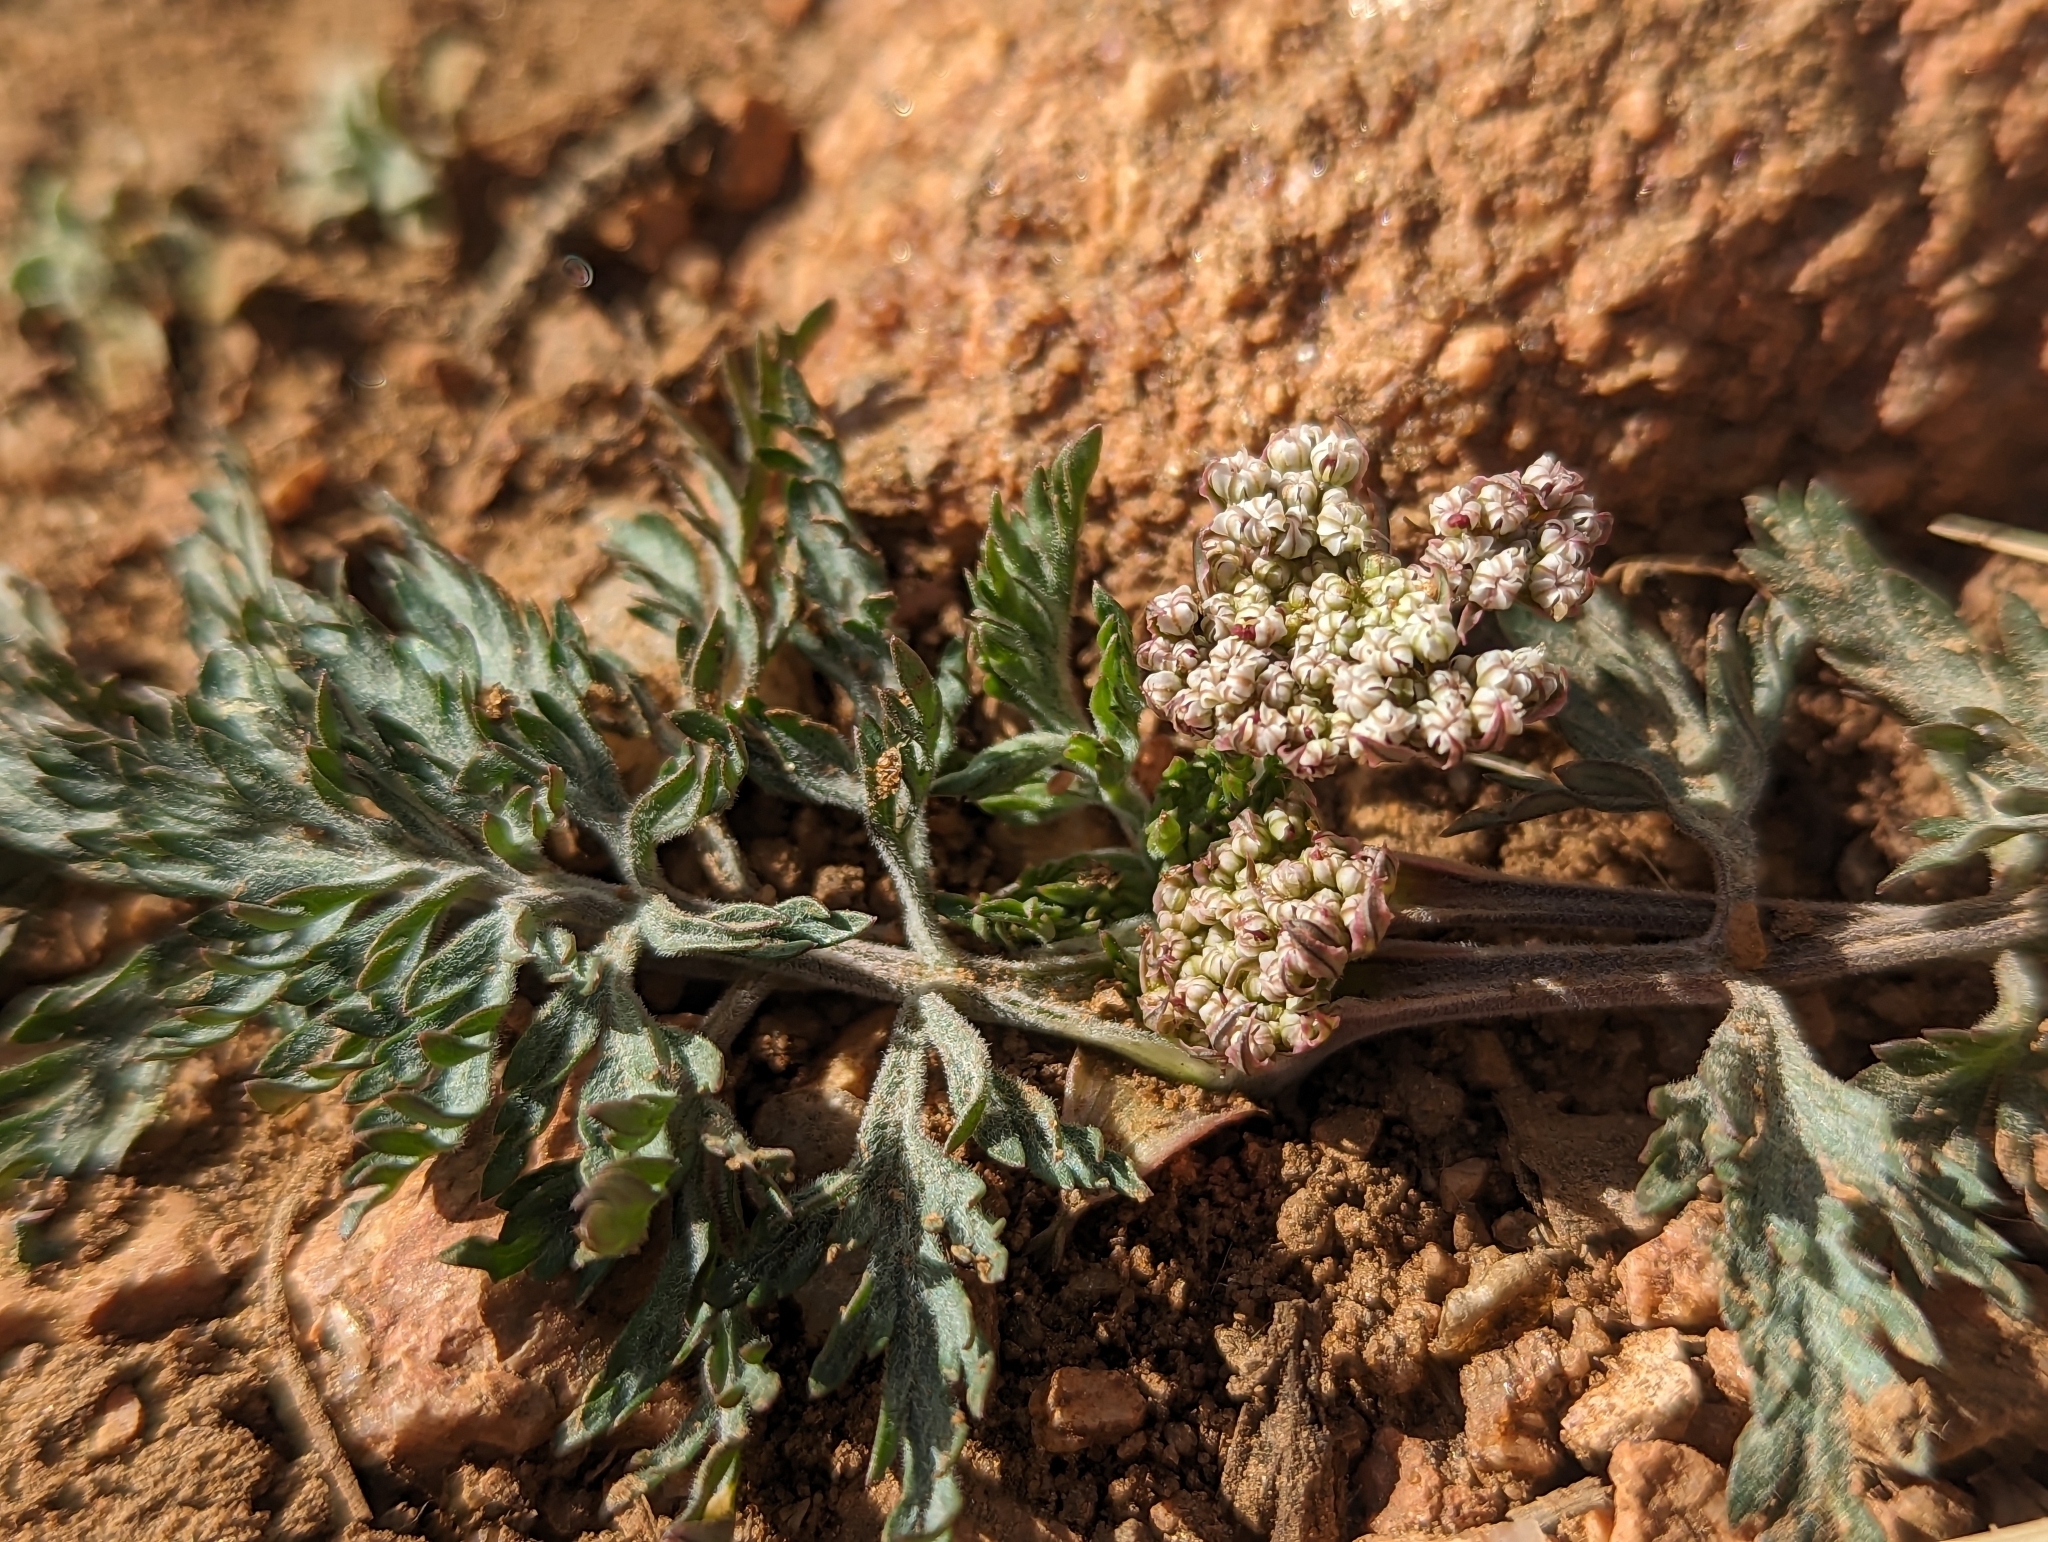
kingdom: Plantae
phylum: Tracheophyta
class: Magnoliopsida
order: Apiales
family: Apiaceae
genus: Lomatium
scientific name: Lomatium orientale
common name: Eastern cous
